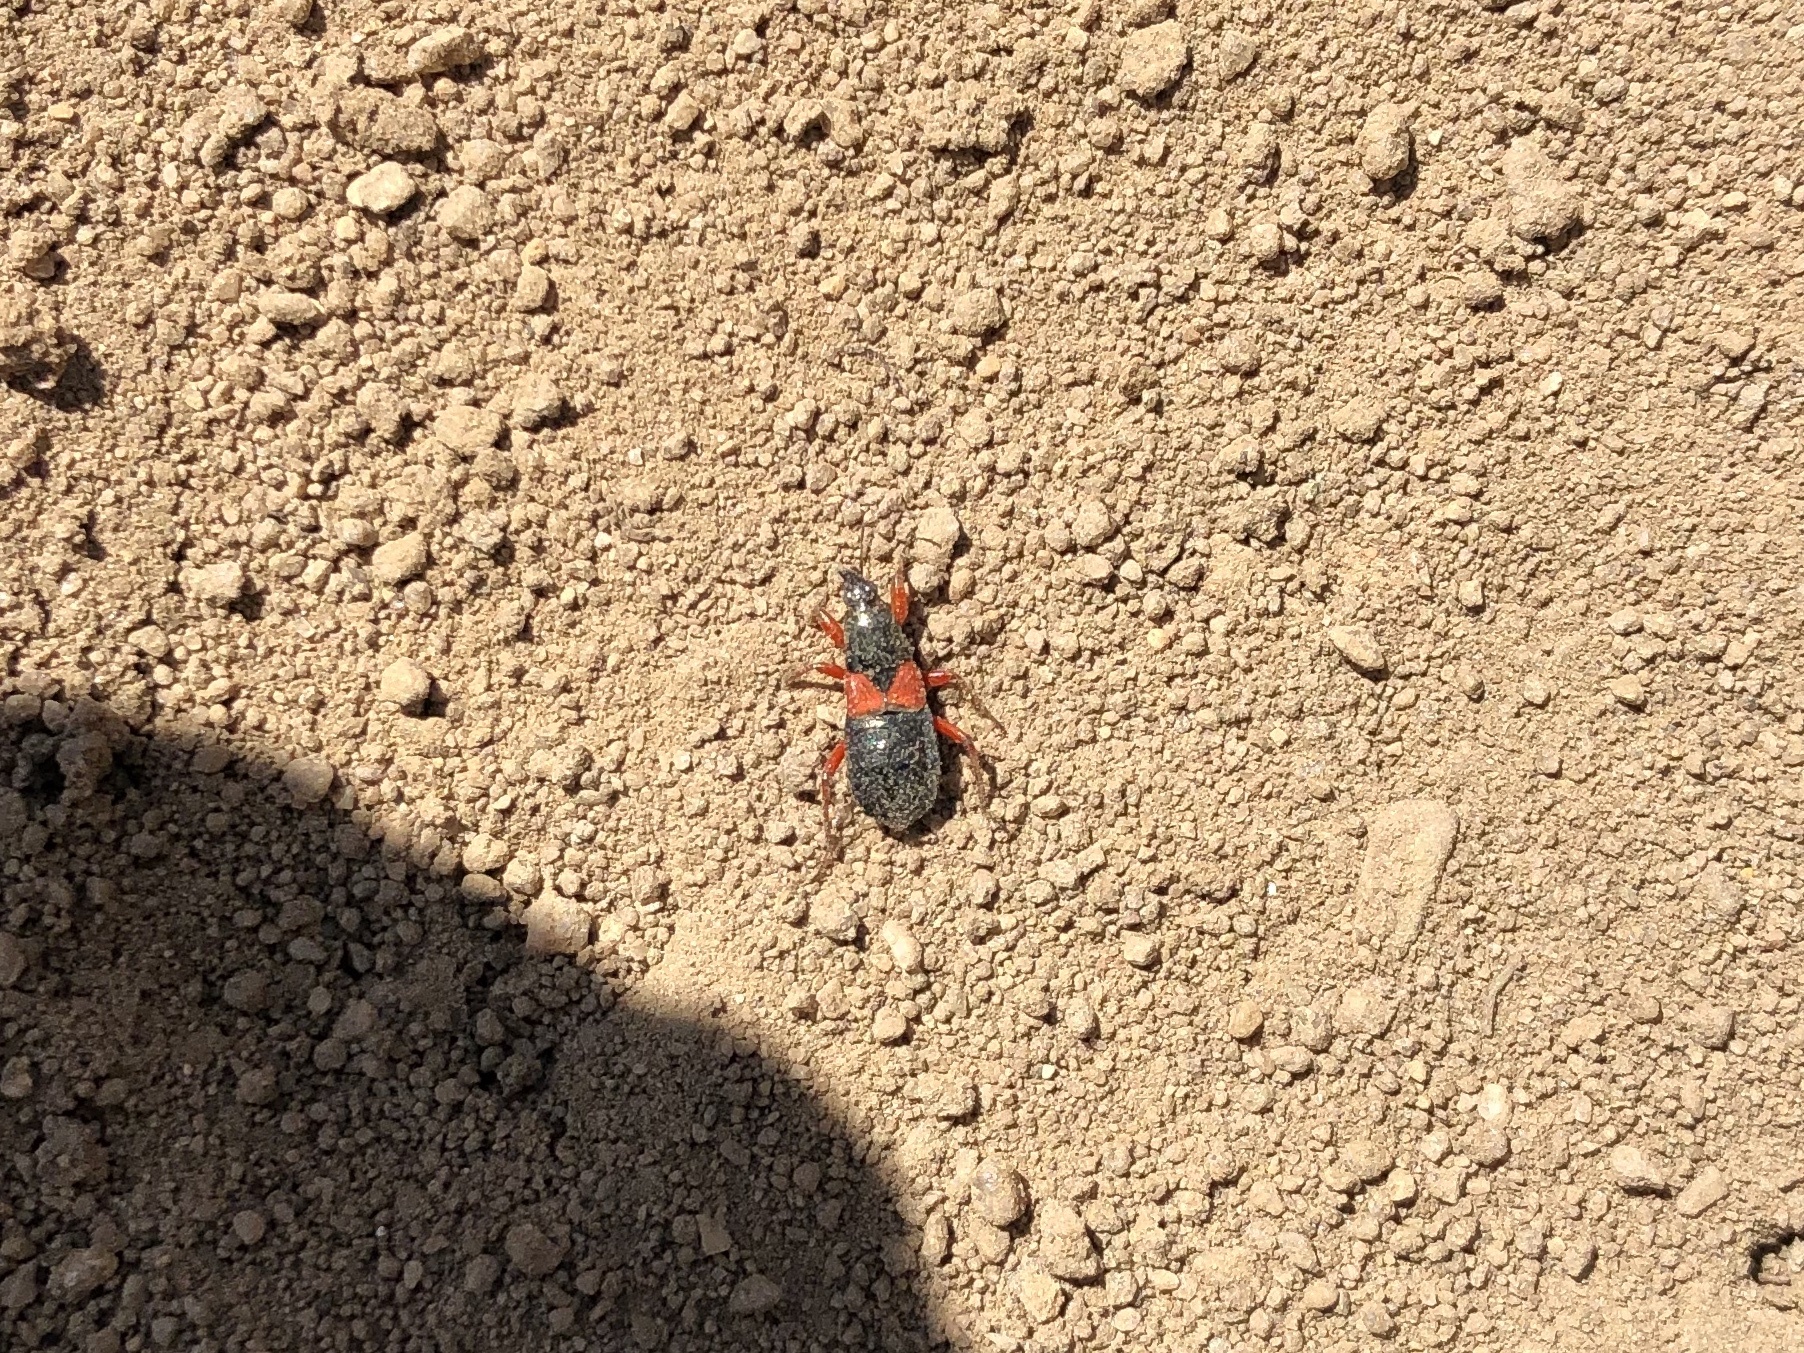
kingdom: Animalia
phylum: Arthropoda
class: Insecta
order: Hemiptera
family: Nabidae
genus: Prostemma
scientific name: Prostemma guttula
